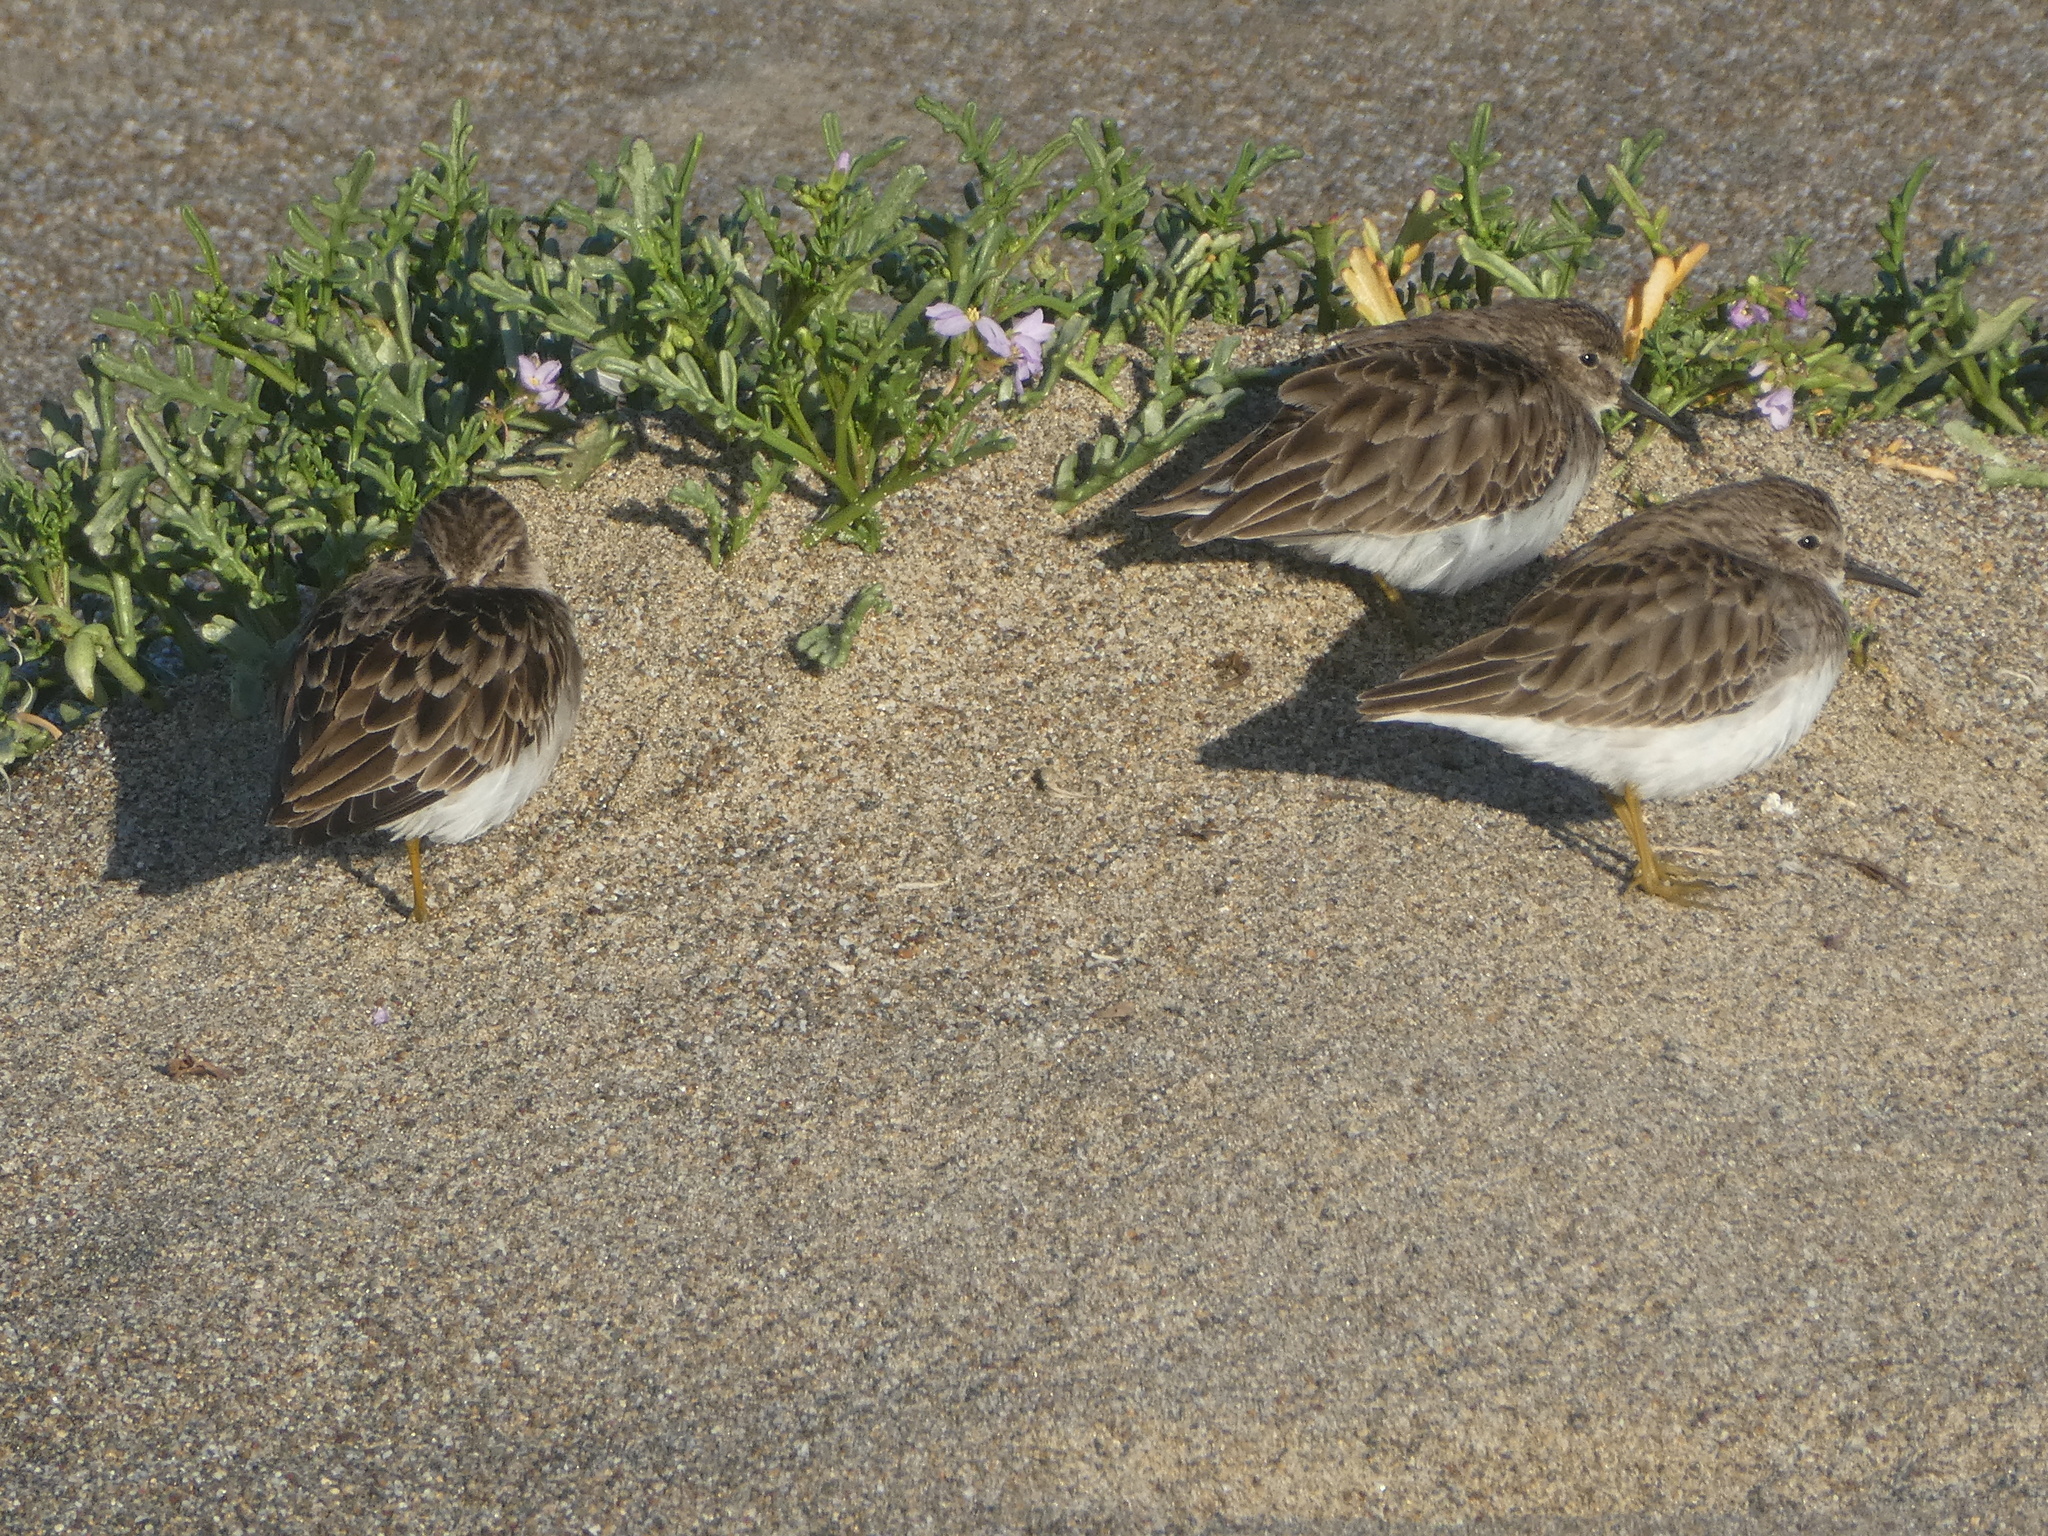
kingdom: Animalia
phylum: Chordata
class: Aves
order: Charadriiformes
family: Scolopacidae
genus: Calidris
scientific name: Calidris minutilla
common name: Least sandpiper
